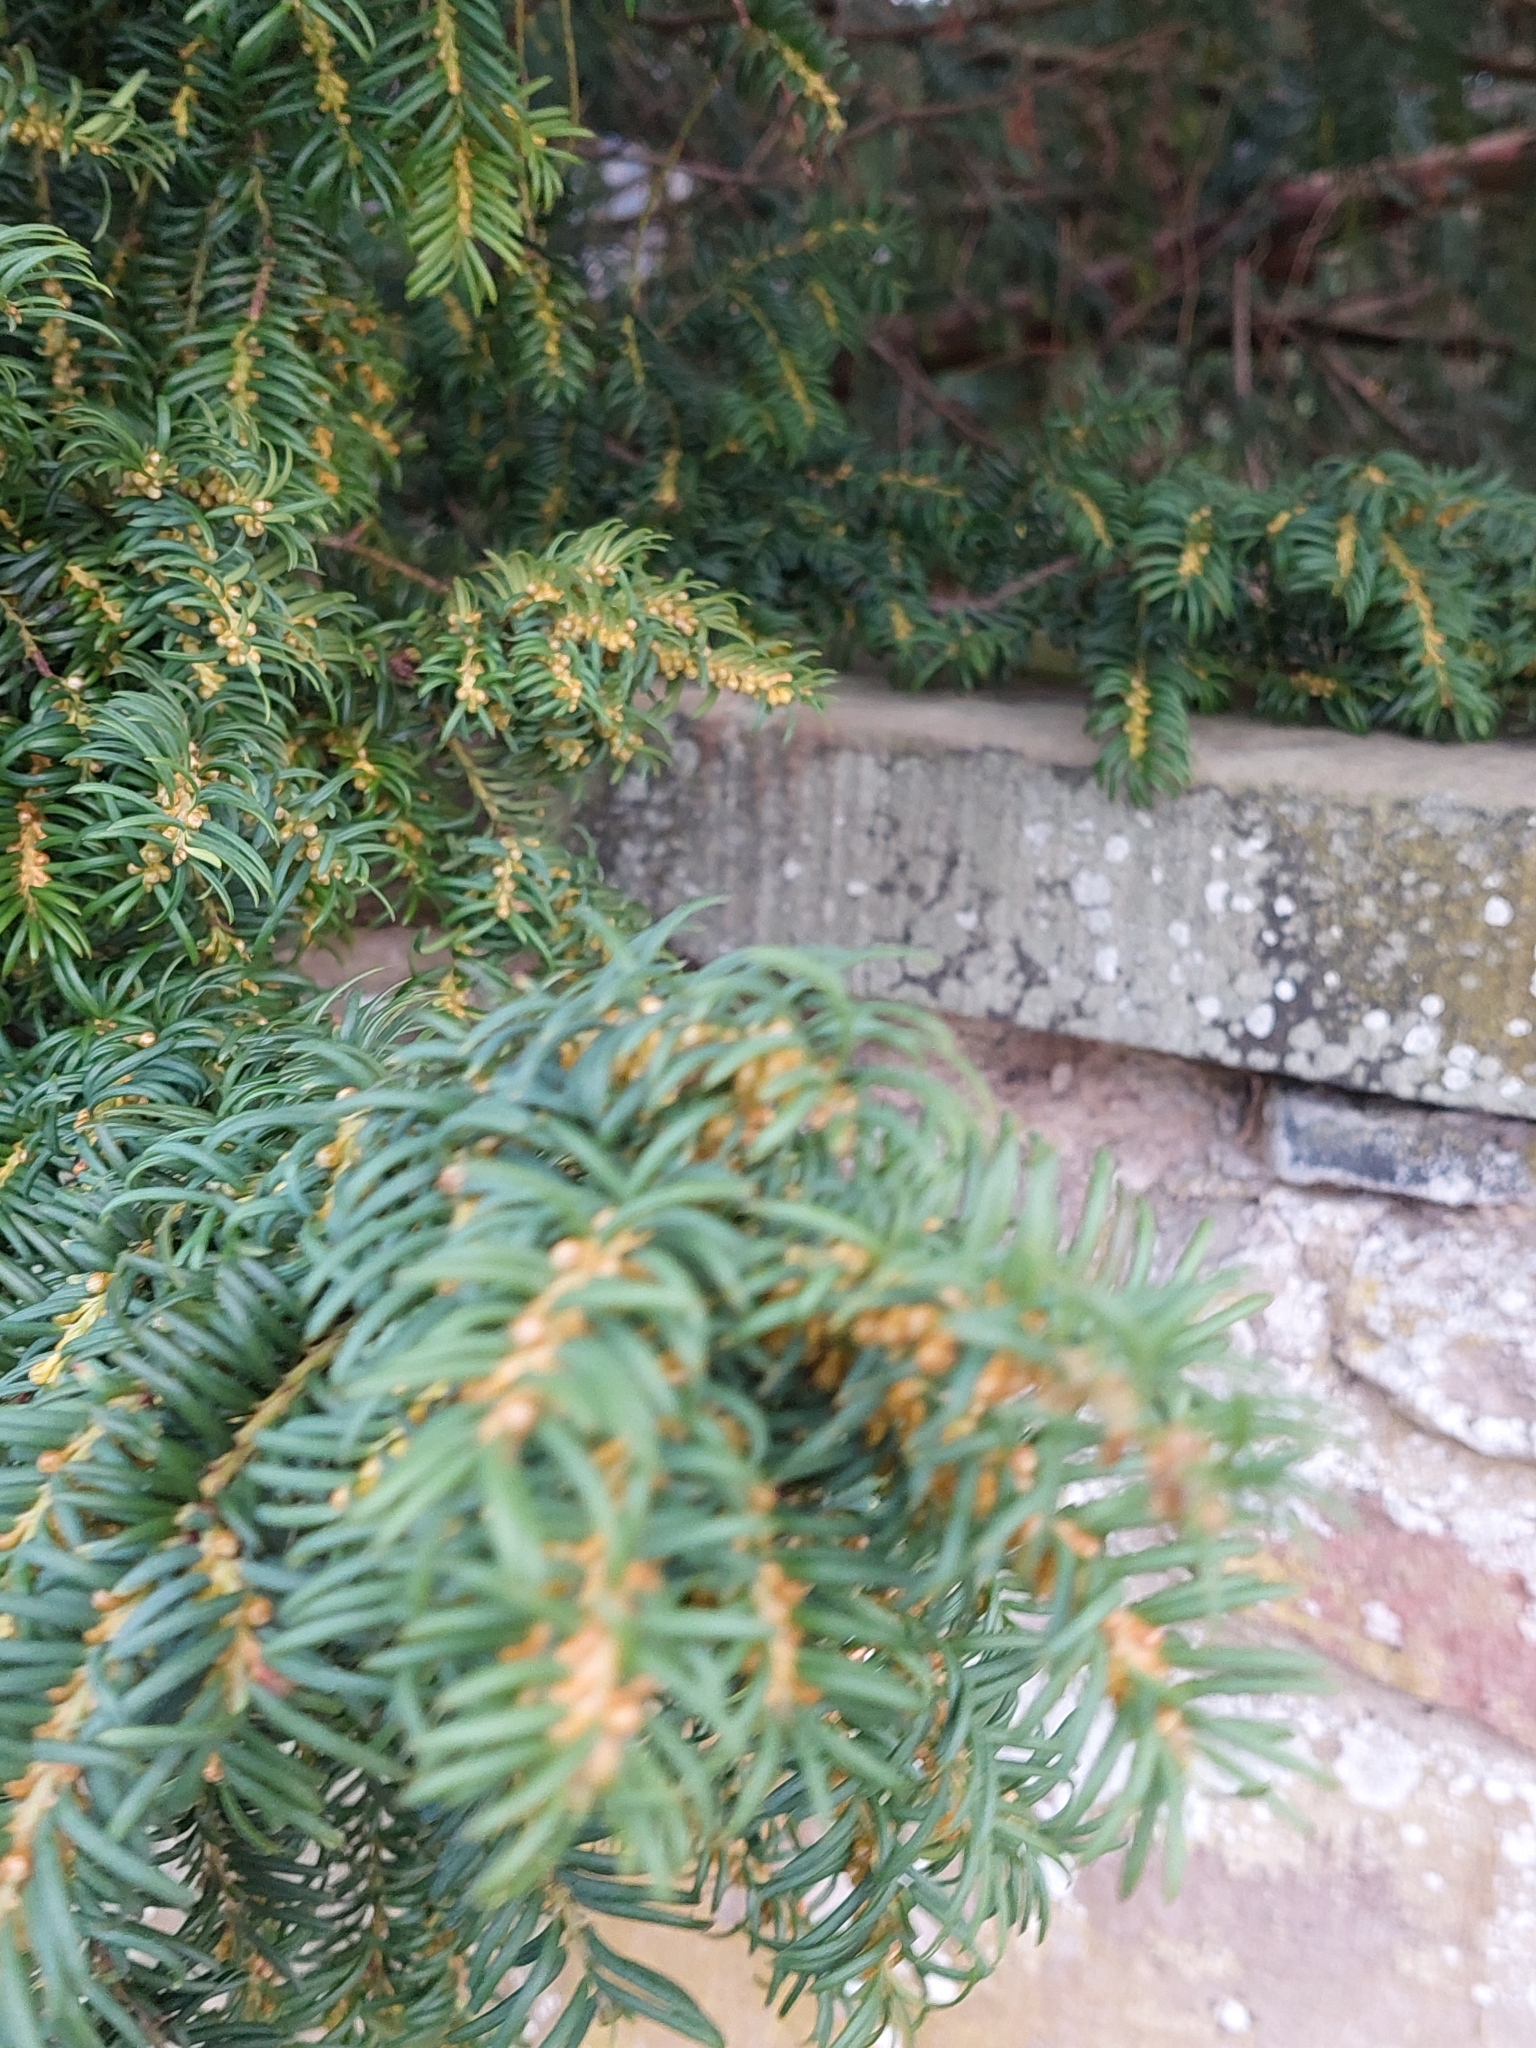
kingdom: Plantae
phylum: Tracheophyta
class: Pinopsida
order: Pinales
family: Taxaceae
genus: Taxus
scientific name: Taxus baccata
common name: Yew
